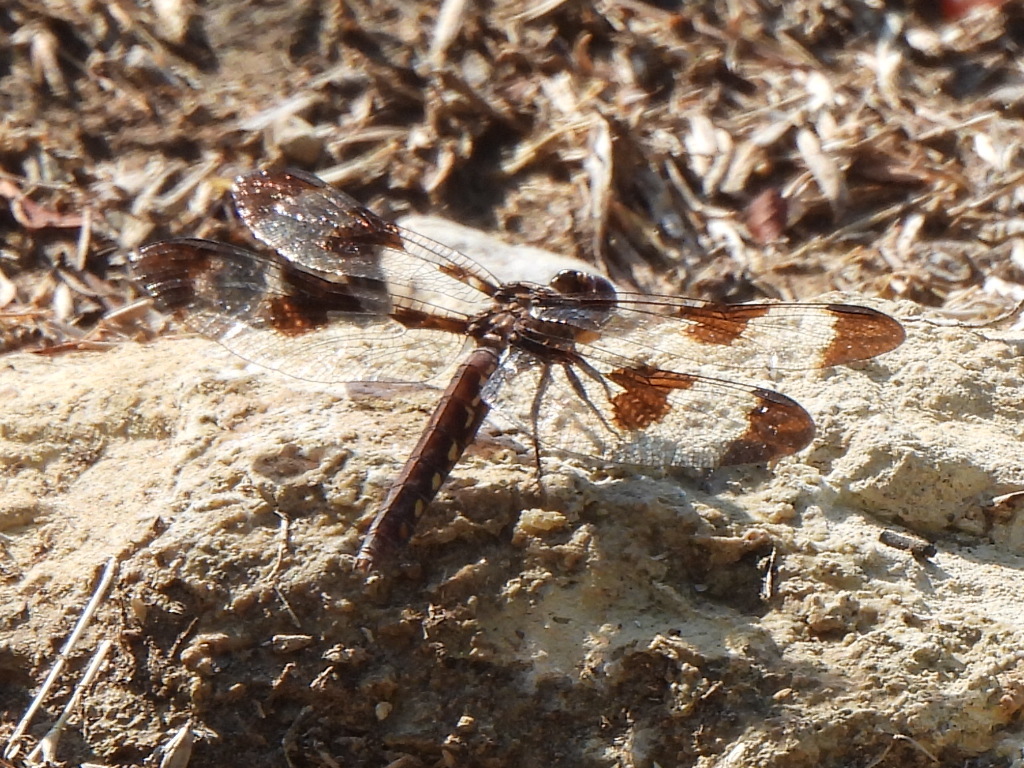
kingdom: Animalia
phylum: Arthropoda
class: Insecta
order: Odonata
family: Libellulidae
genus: Plathemis
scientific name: Plathemis lydia
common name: Common whitetail
